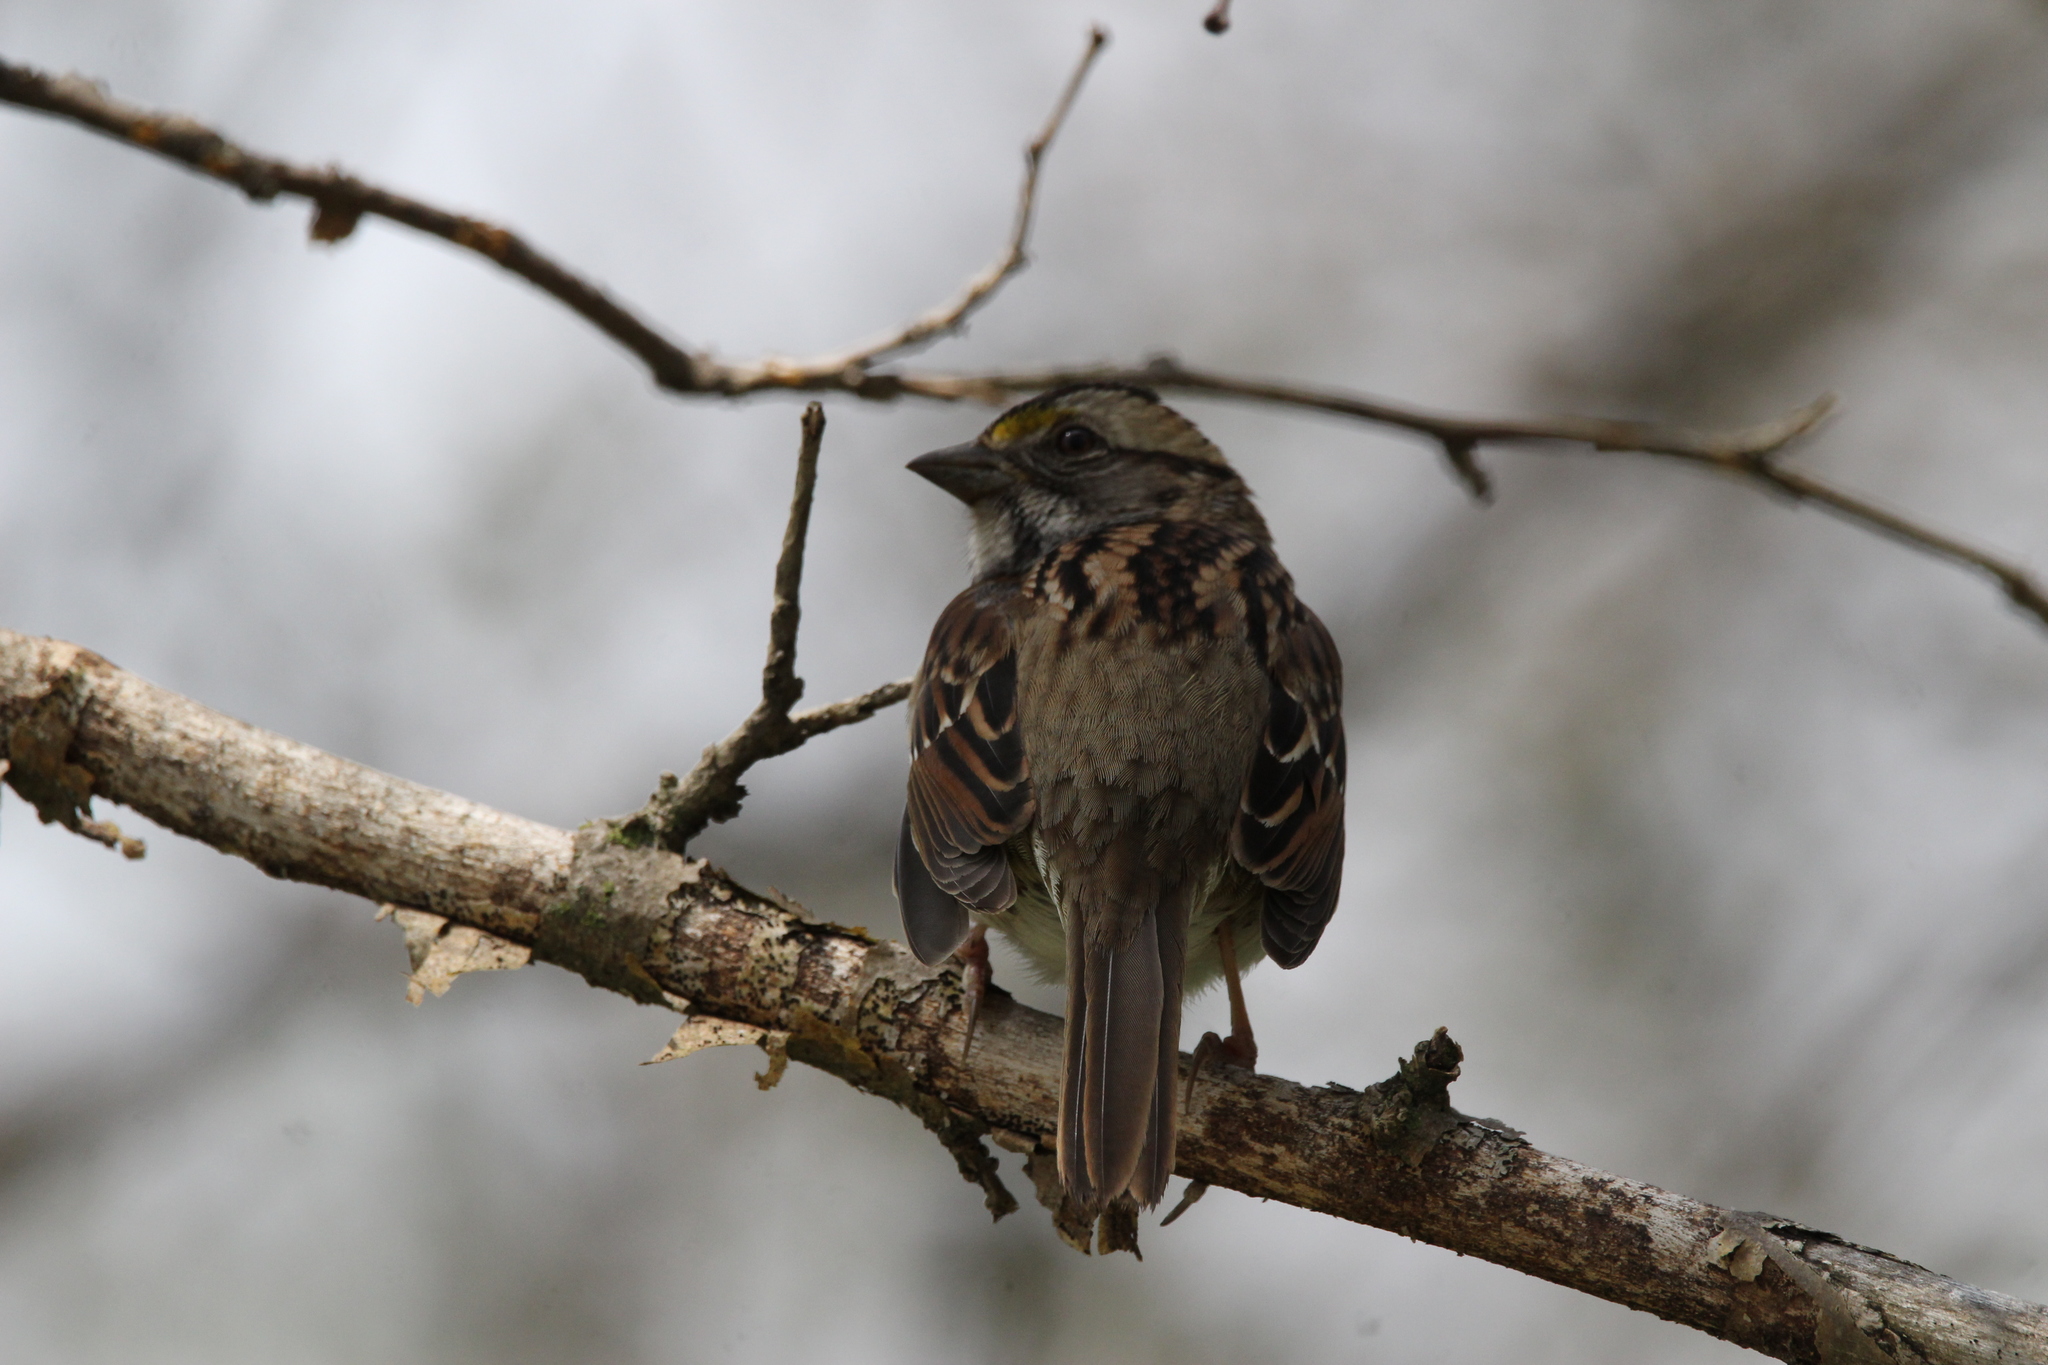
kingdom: Animalia
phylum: Chordata
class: Aves
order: Passeriformes
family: Passerellidae
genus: Zonotrichia
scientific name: Zonotrichia albicollis
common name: White-throated sparrow
